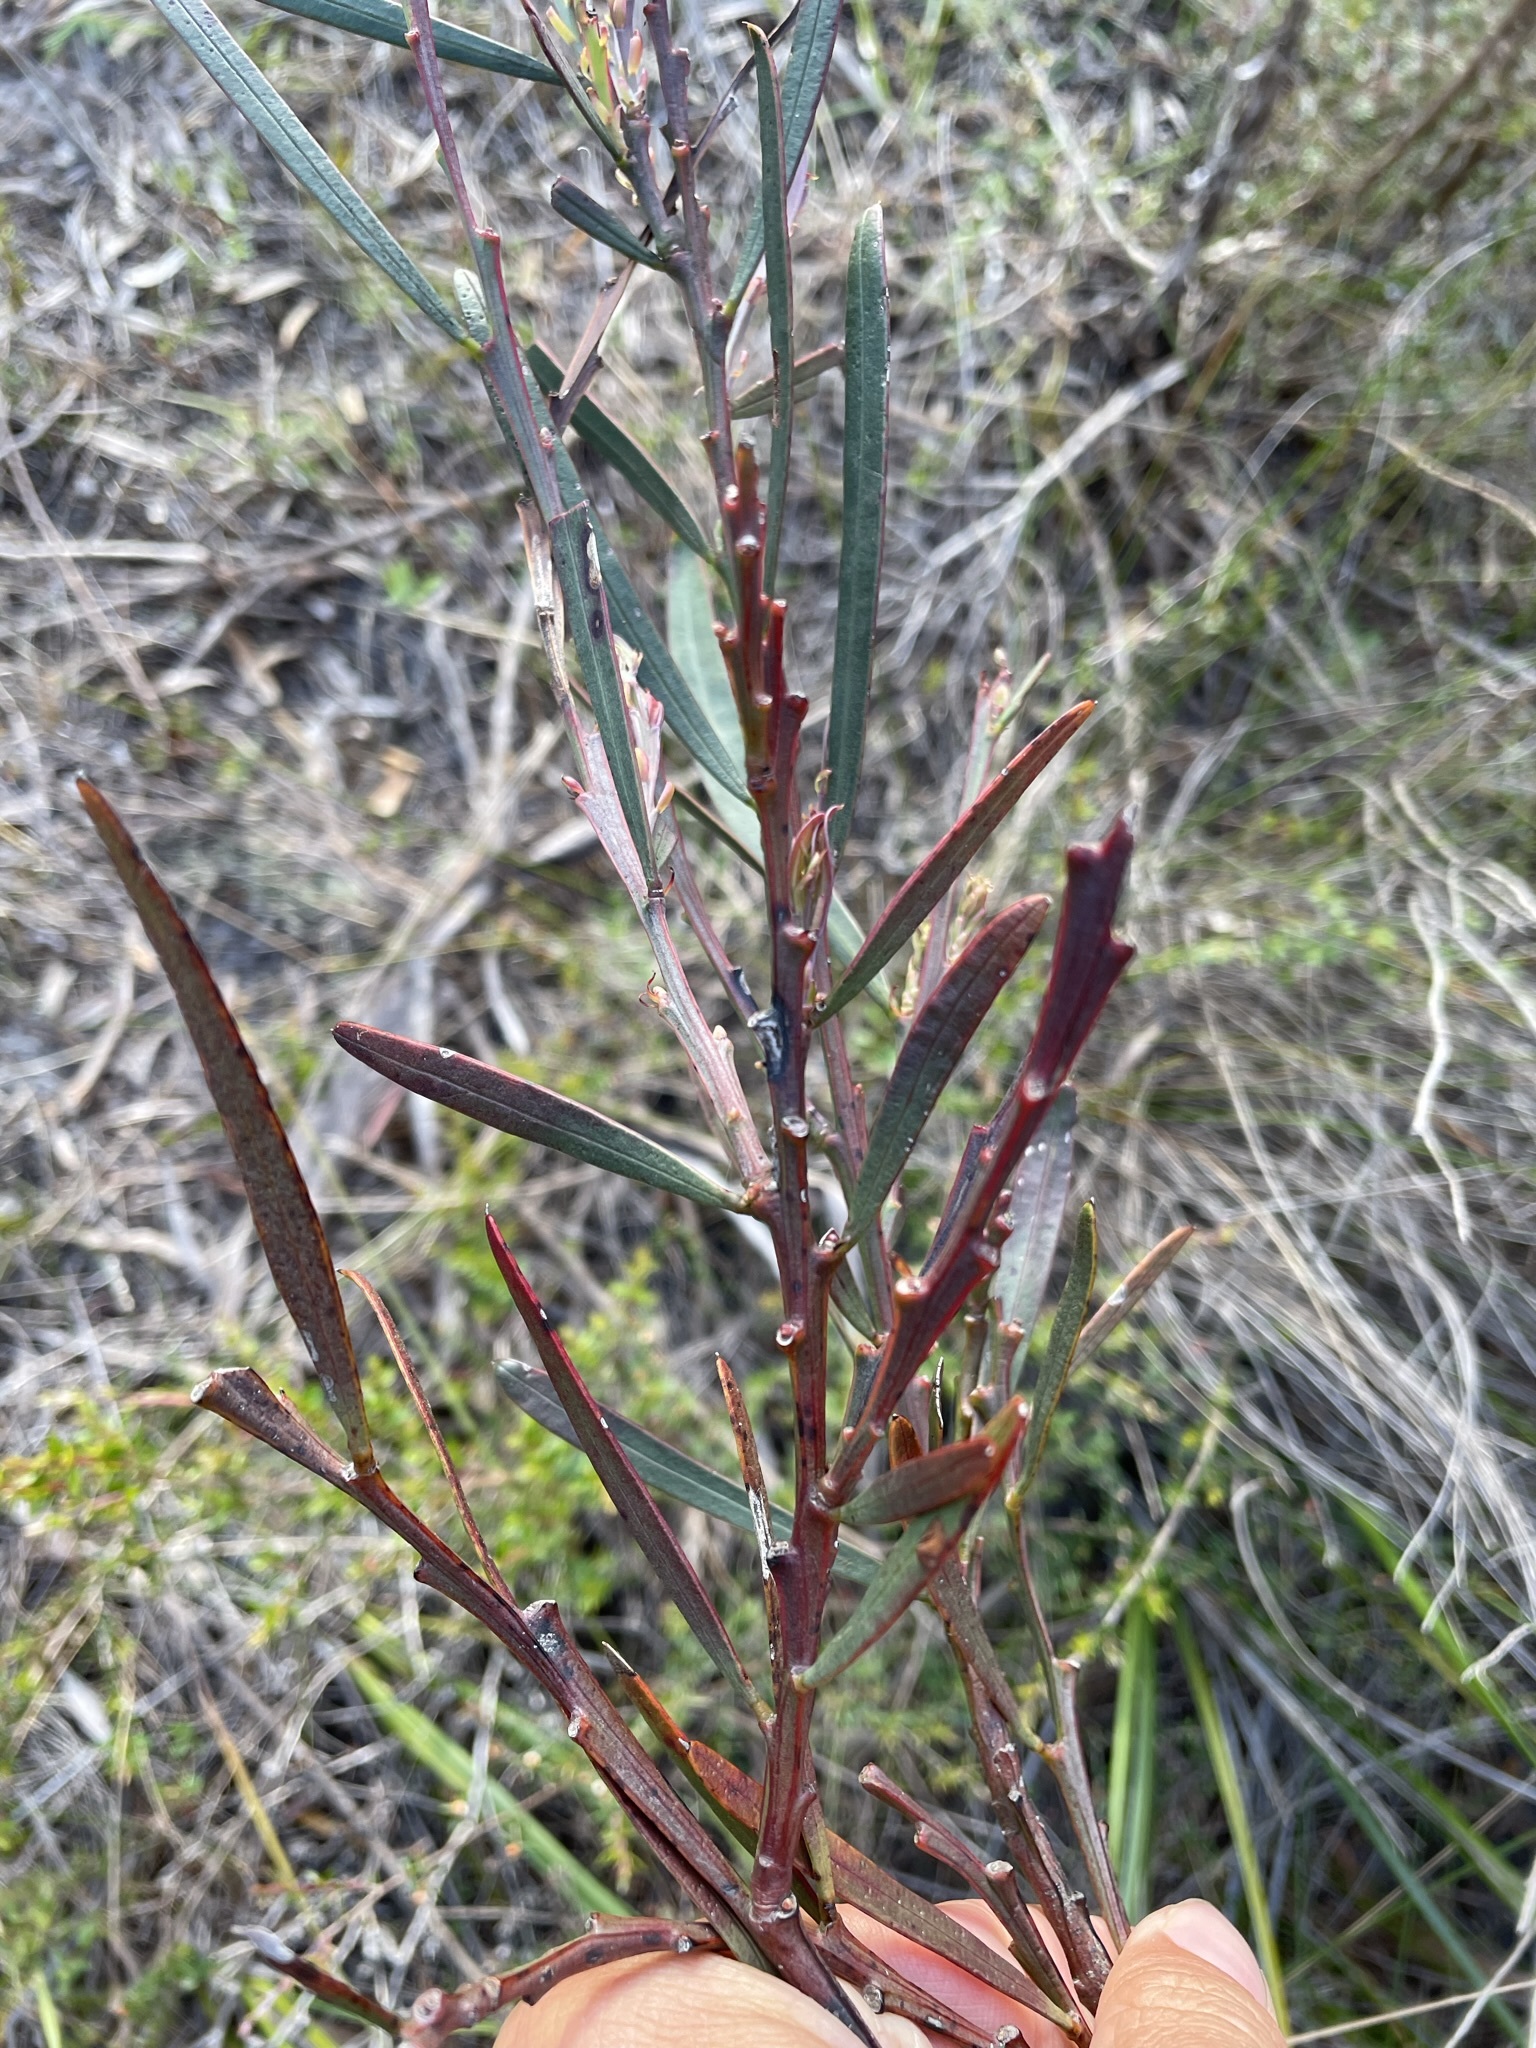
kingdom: Plantae
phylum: Tracheophyta
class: Magnoliopsida
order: Fabales
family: Fabaceae
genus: Acacia
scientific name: Acacia suaveolens
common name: Sweet acacia
